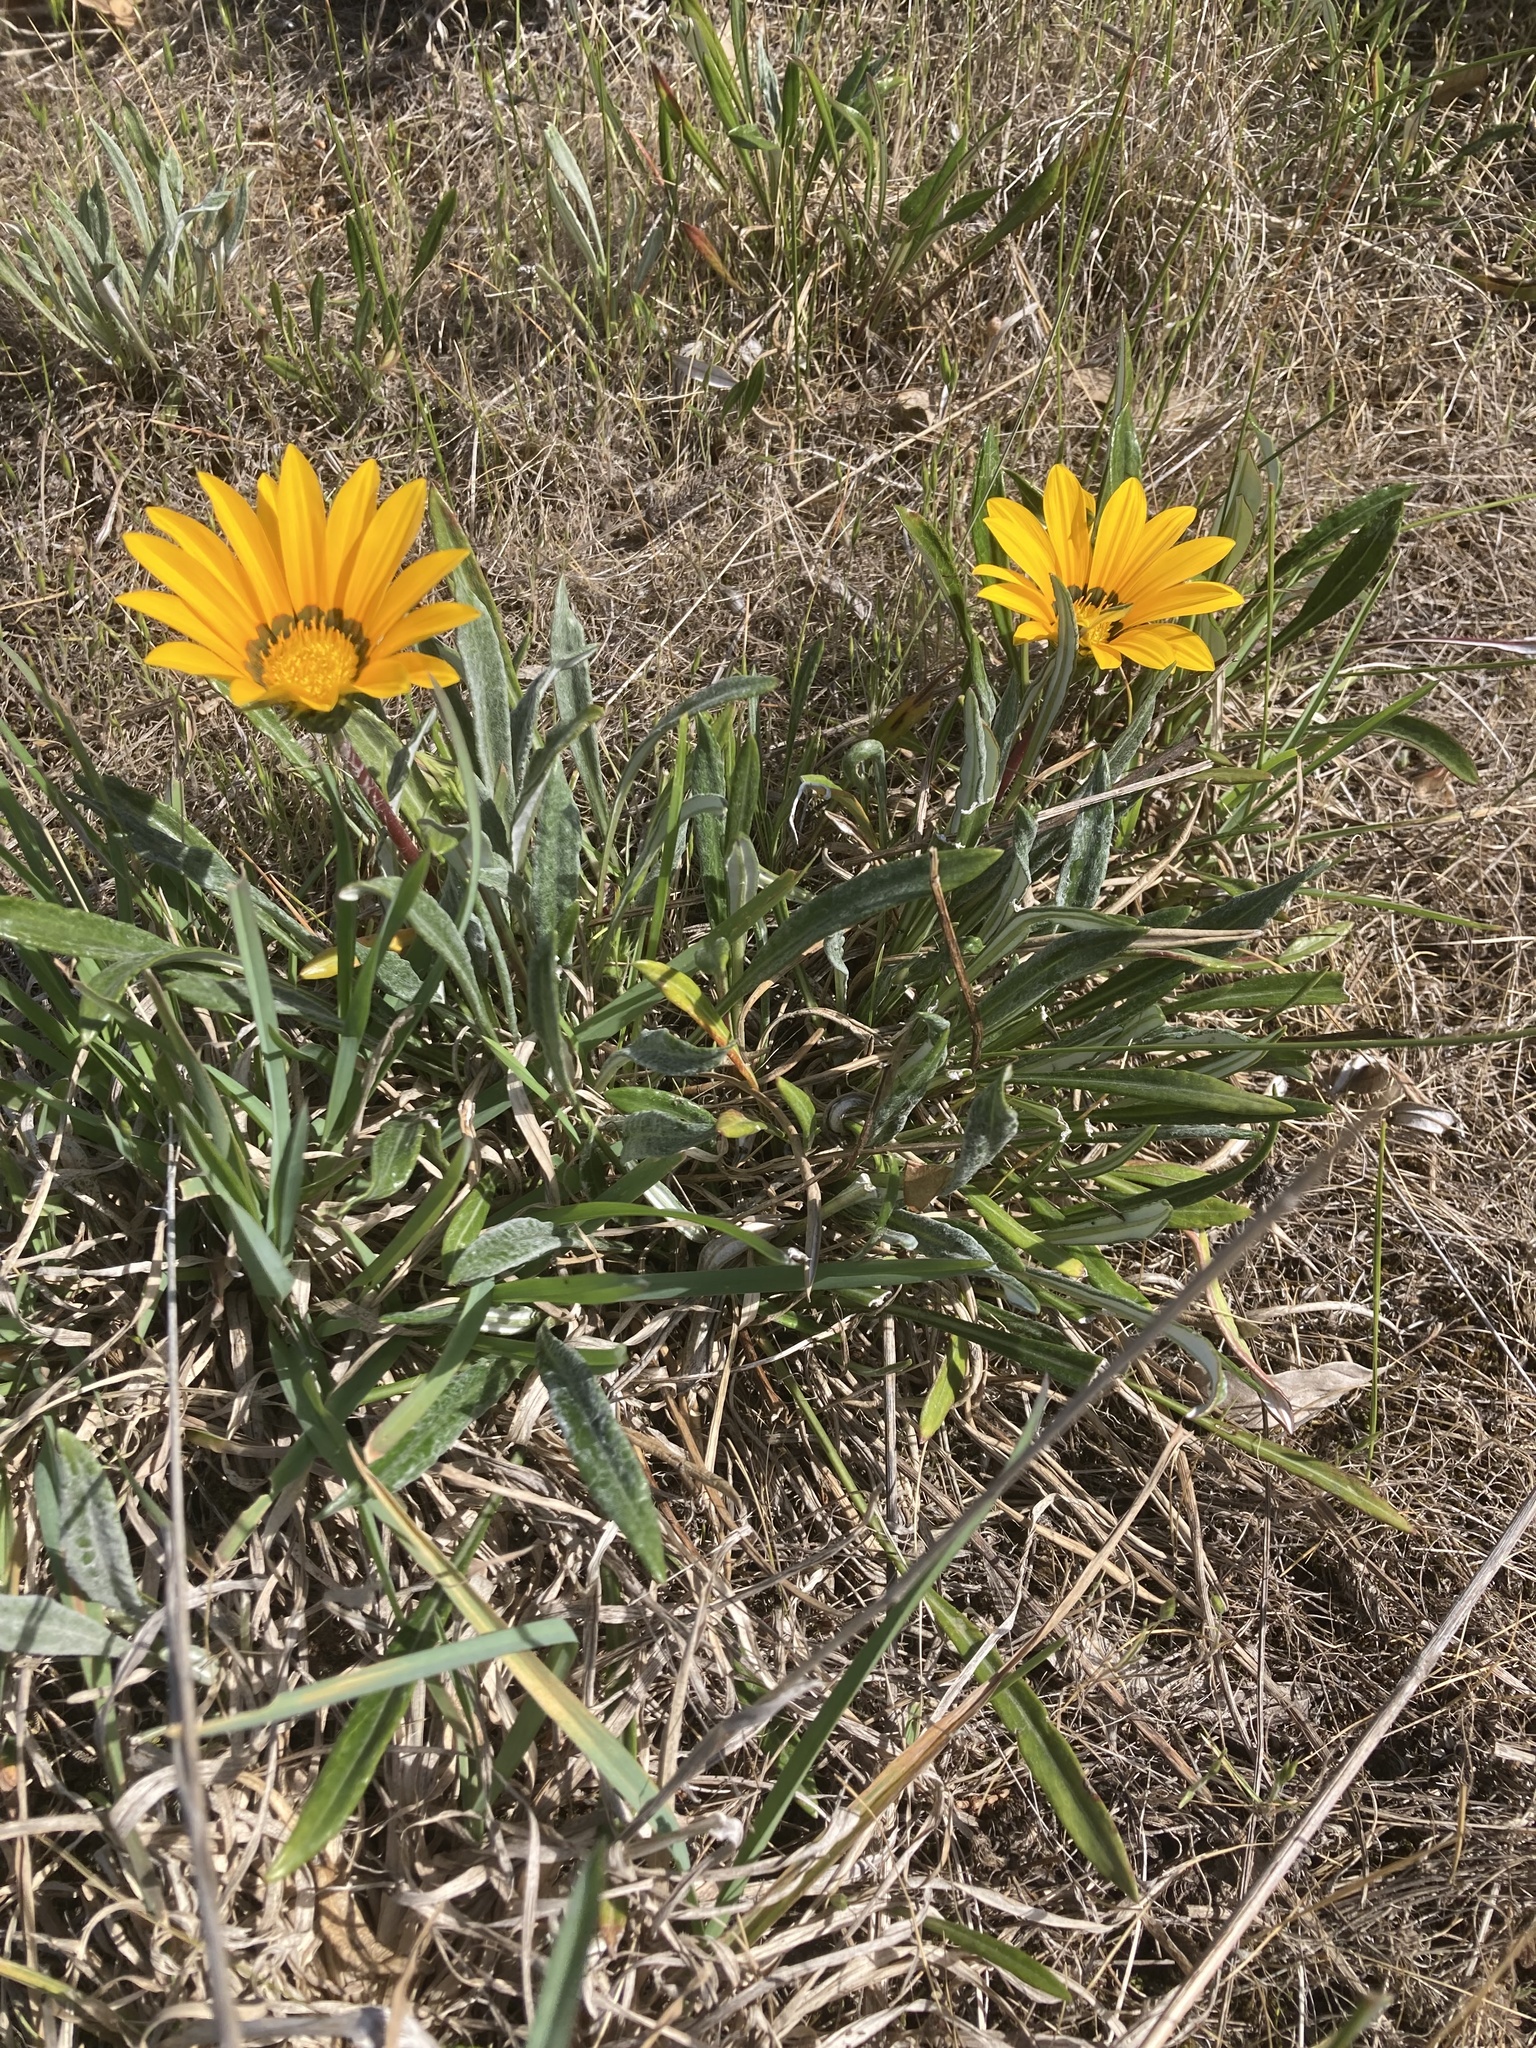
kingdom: Plantae
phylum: Tracheophyta
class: Magnoliopsida
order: Asterales
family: Asteraceae
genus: Gazania
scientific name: Gazania splendens
